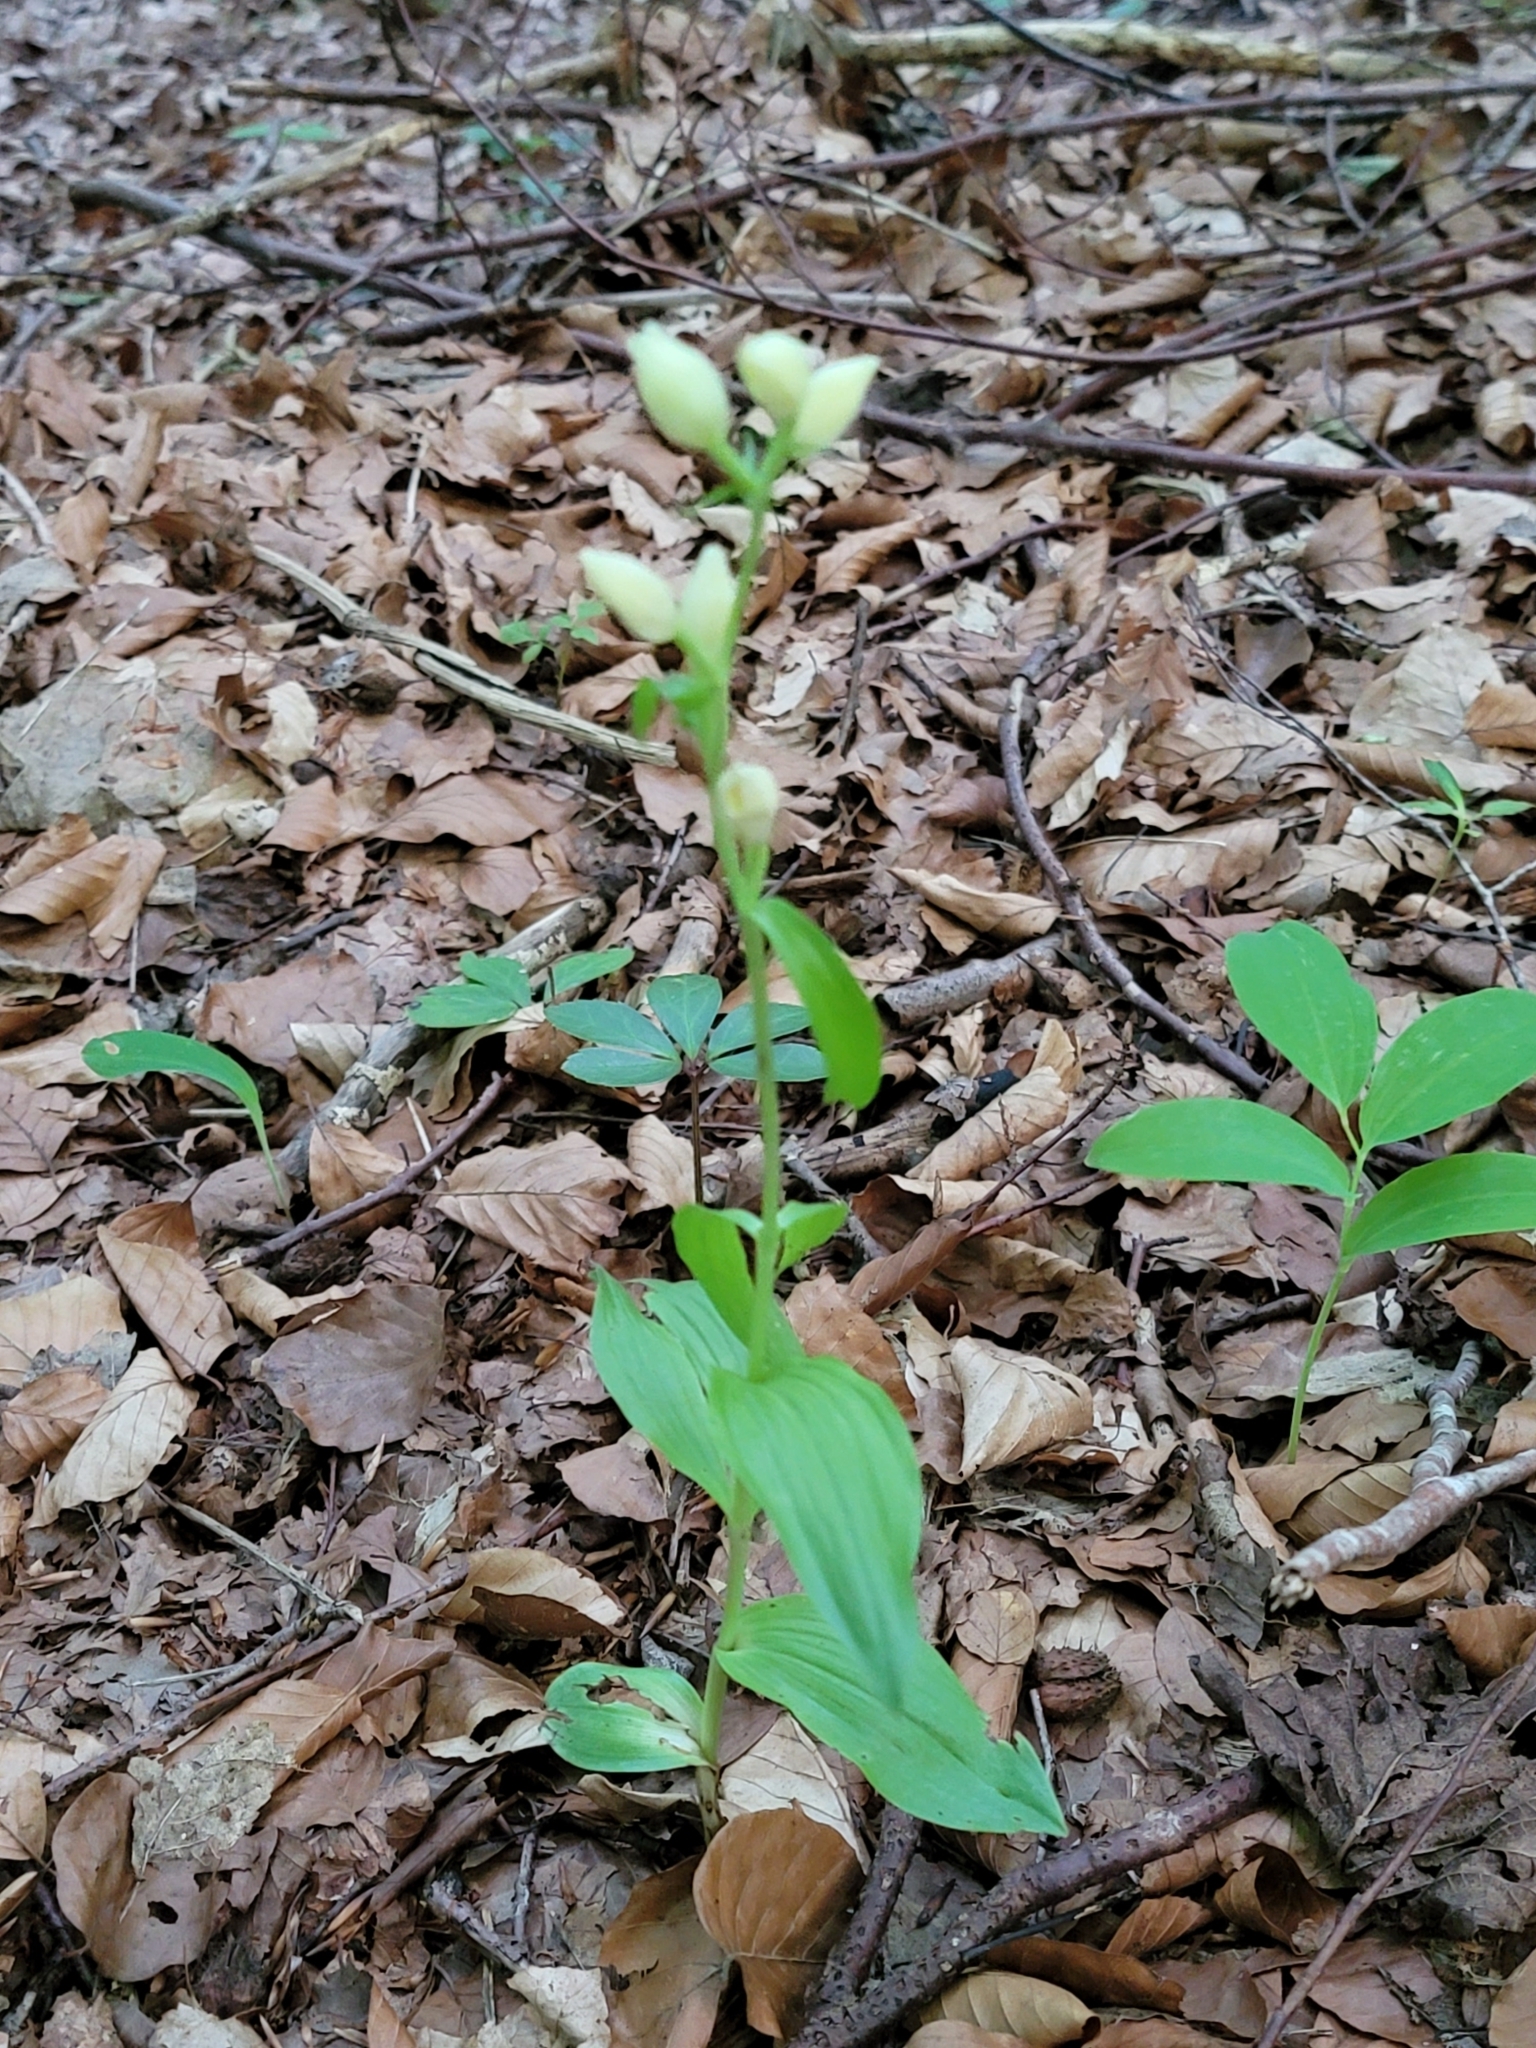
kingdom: Plantae
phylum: Tracheophyta
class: Liliopsida
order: Asparagales
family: Orchidaceae
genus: Cephalanthera
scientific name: Cephalanthera damasonium
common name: White helleborine
